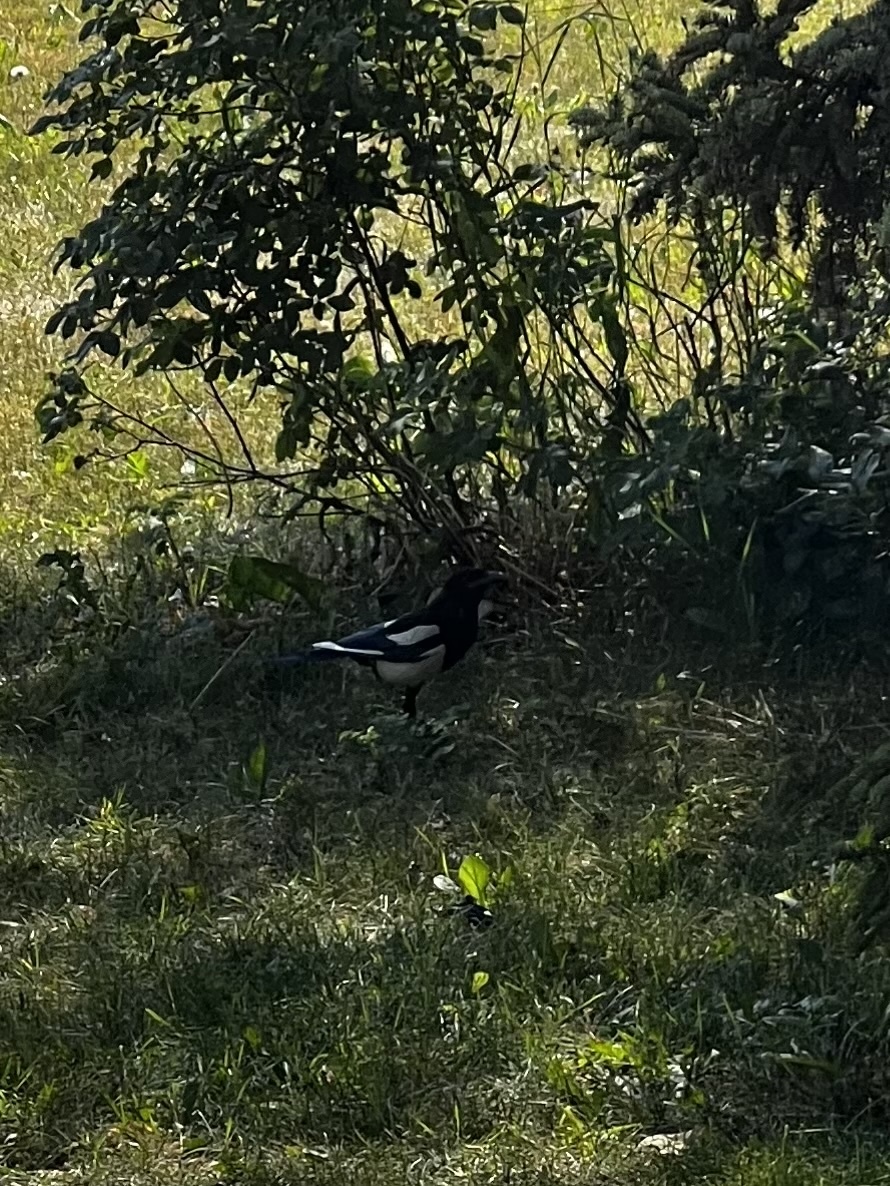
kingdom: Animalia
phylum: Chordata
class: Aves
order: Passeriformes
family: Corvidae
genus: Pica
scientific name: Pica hudsonia
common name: Black-billed magpie
